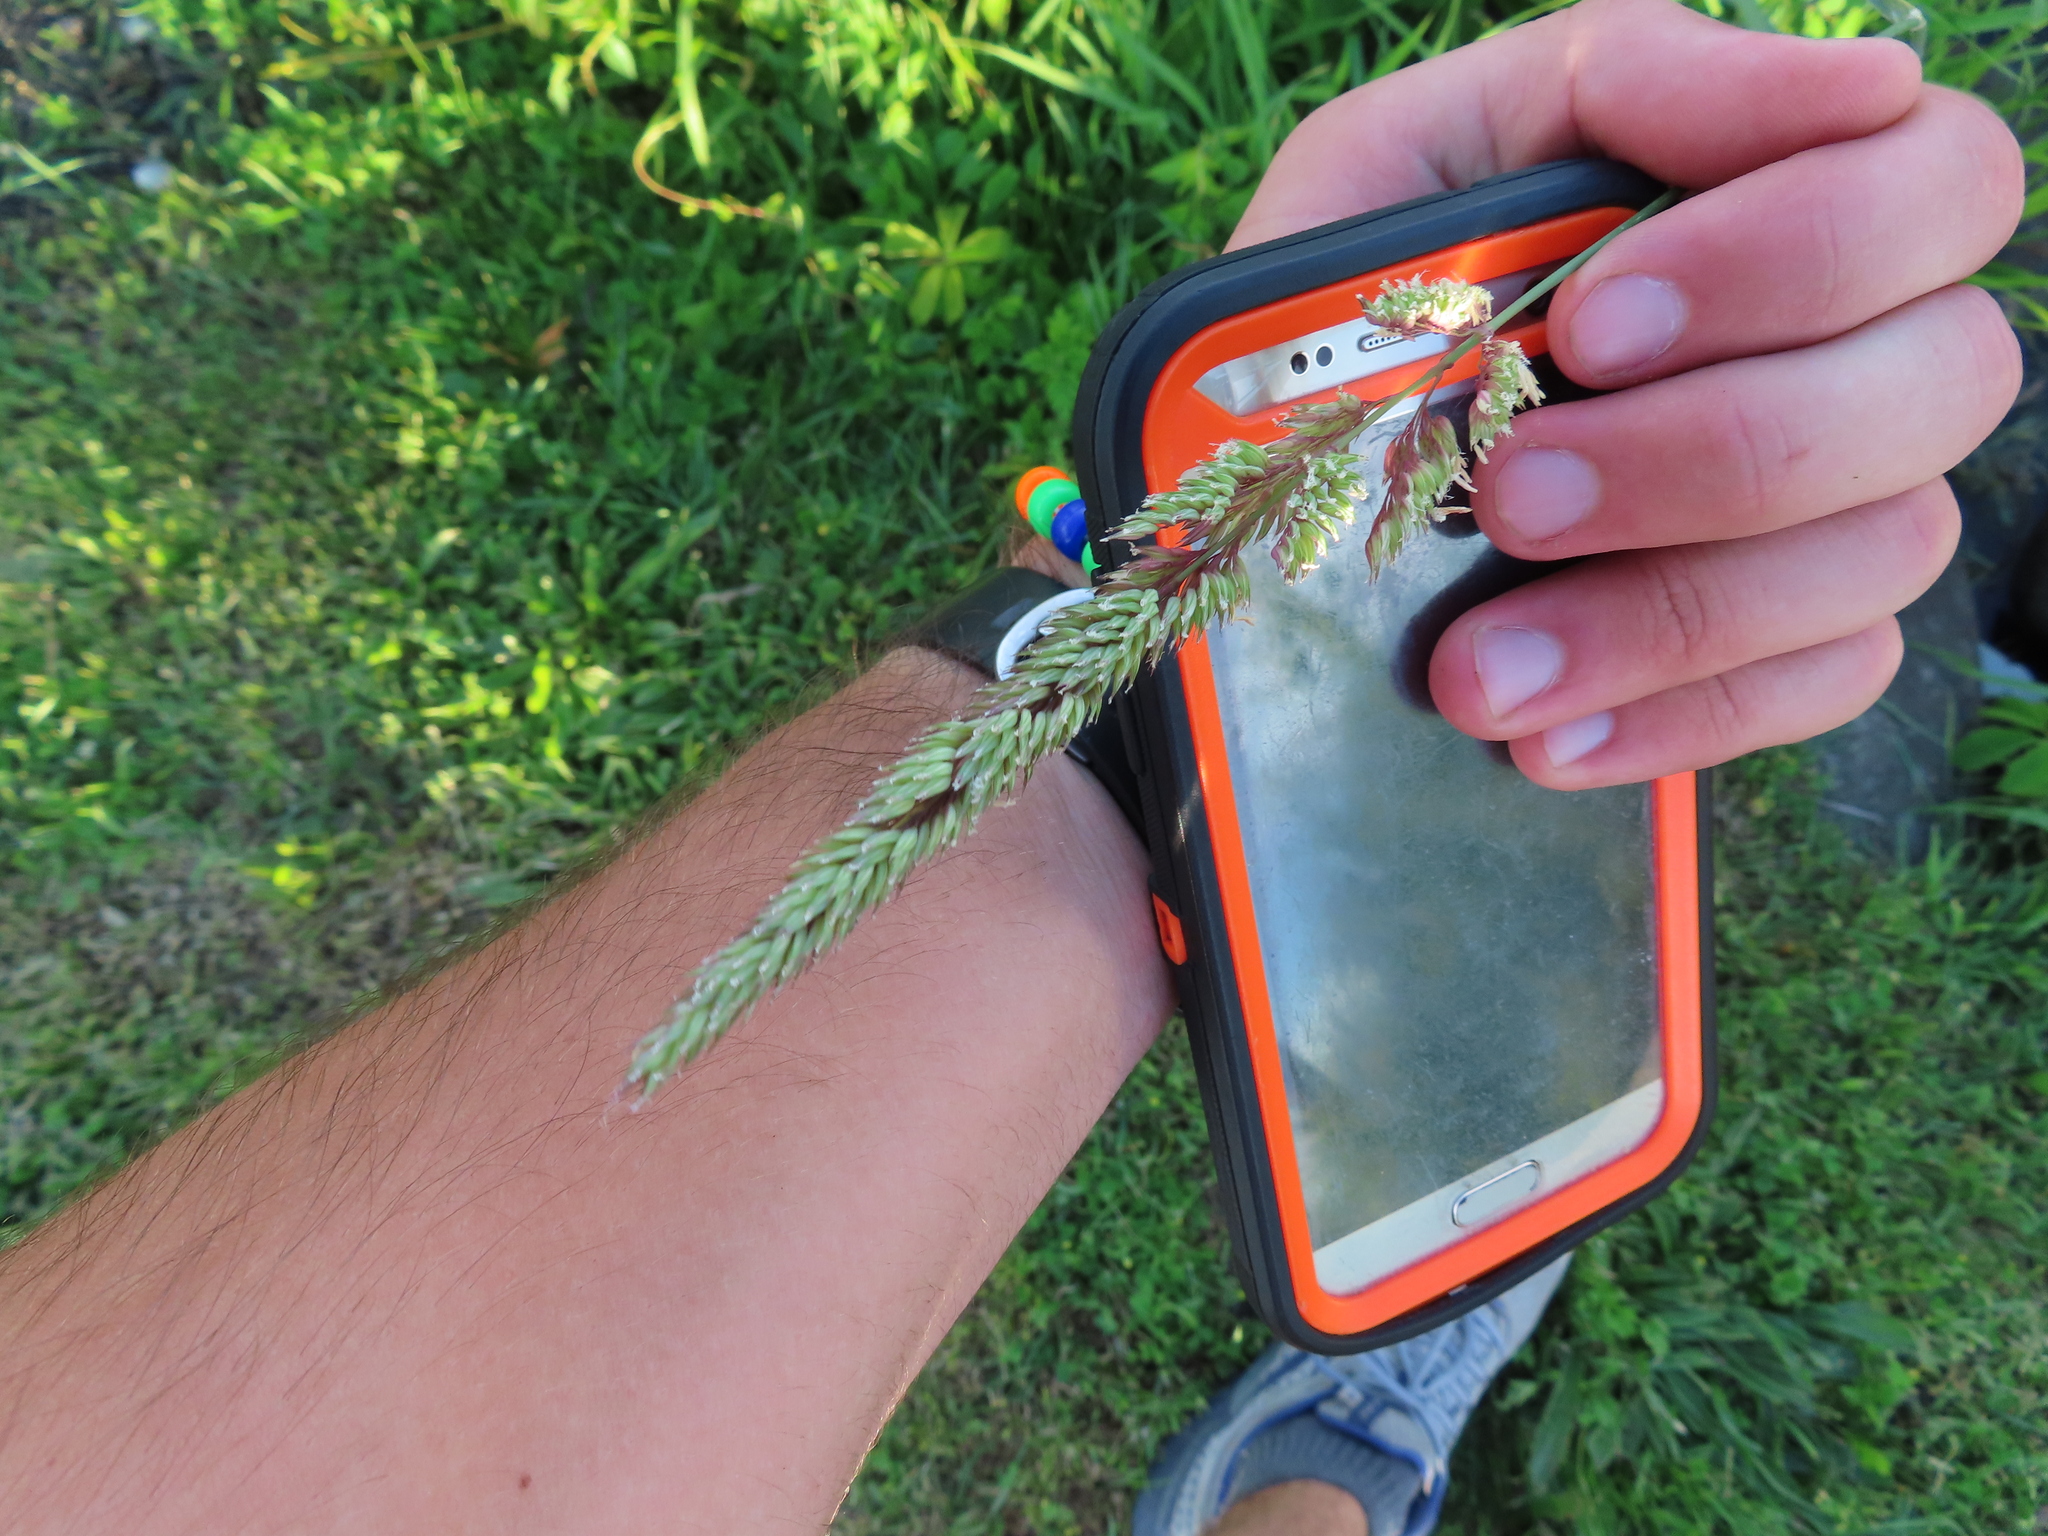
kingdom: Plantae
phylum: Tracheophyta
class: Liliopsida
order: Poales
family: Poaceae
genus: Phalaris
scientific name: Phalaris arundinacea
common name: Reed canary-grass
